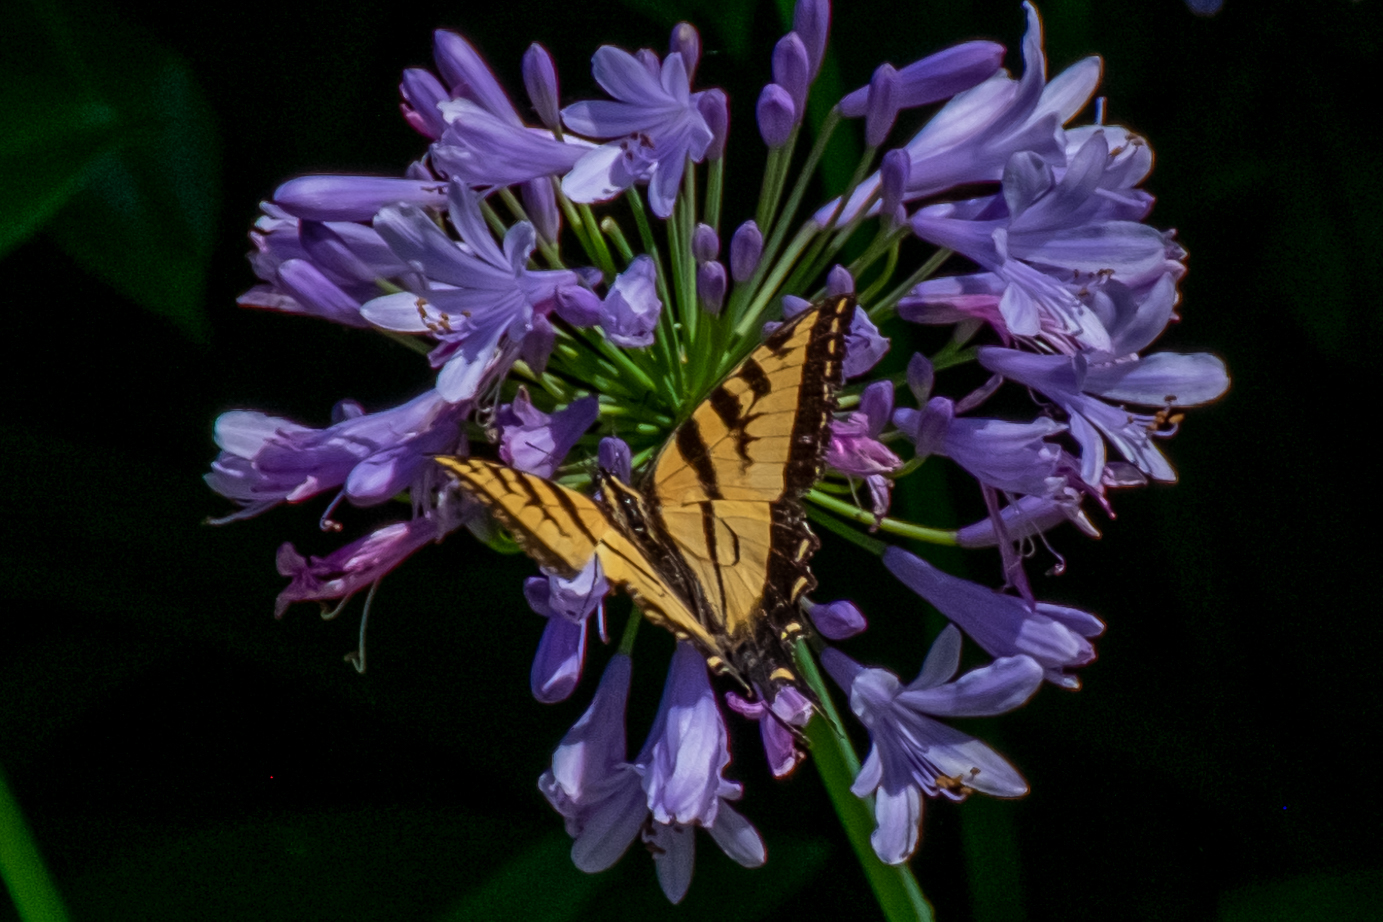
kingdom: Animalia
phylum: Arthropoda
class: Insecta
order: Lepidoptera
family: Papilionidae
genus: Papilio
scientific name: Papilio rutulus
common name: Western tiger swallowtail
